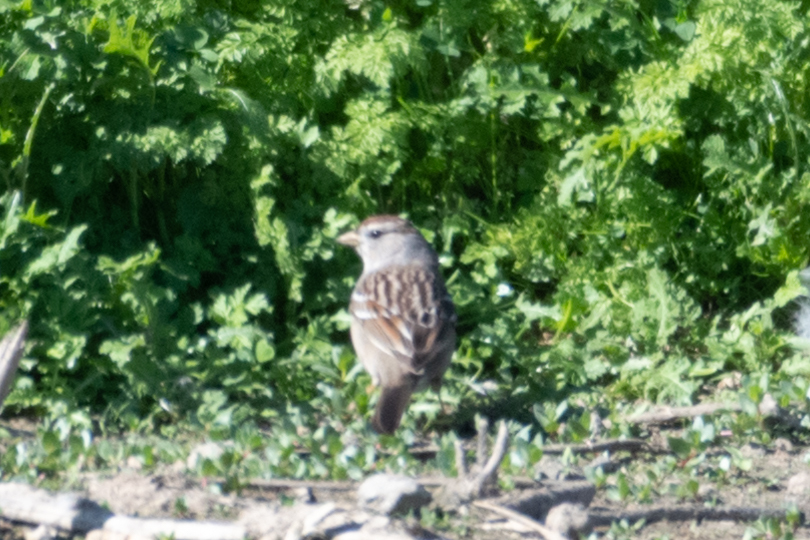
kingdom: Animalia
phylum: Chordata
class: Aves
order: Passeriformes
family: Passerellidae
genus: Zonotrichia
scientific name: Zonotrichia leucophrys
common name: White-crowned sparrow
